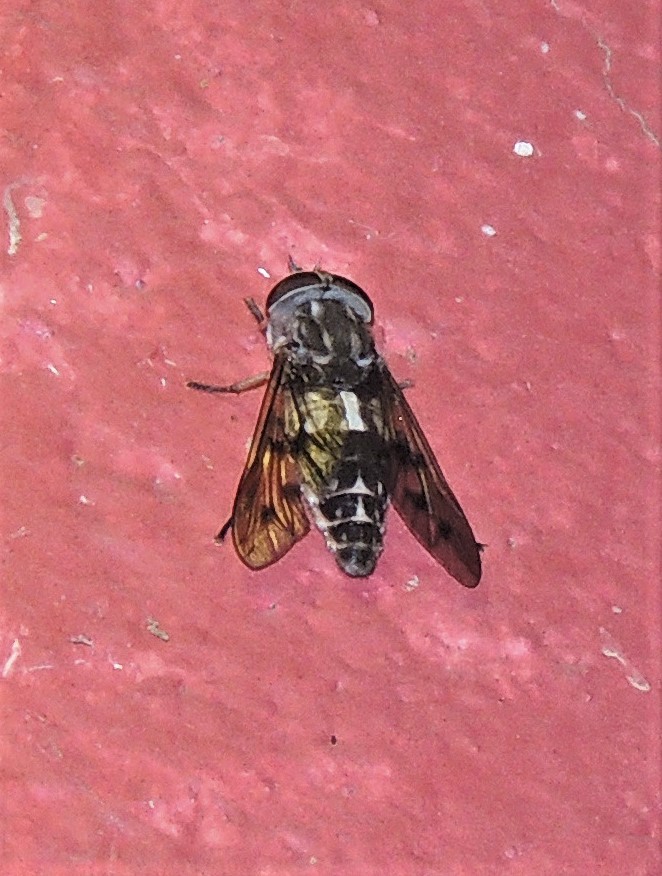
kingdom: Animalia
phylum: Arthropoda
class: Insecta
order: Diptera
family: Tabanidae
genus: Poeciloderas
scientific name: Poeciloderas quadripunctatus
